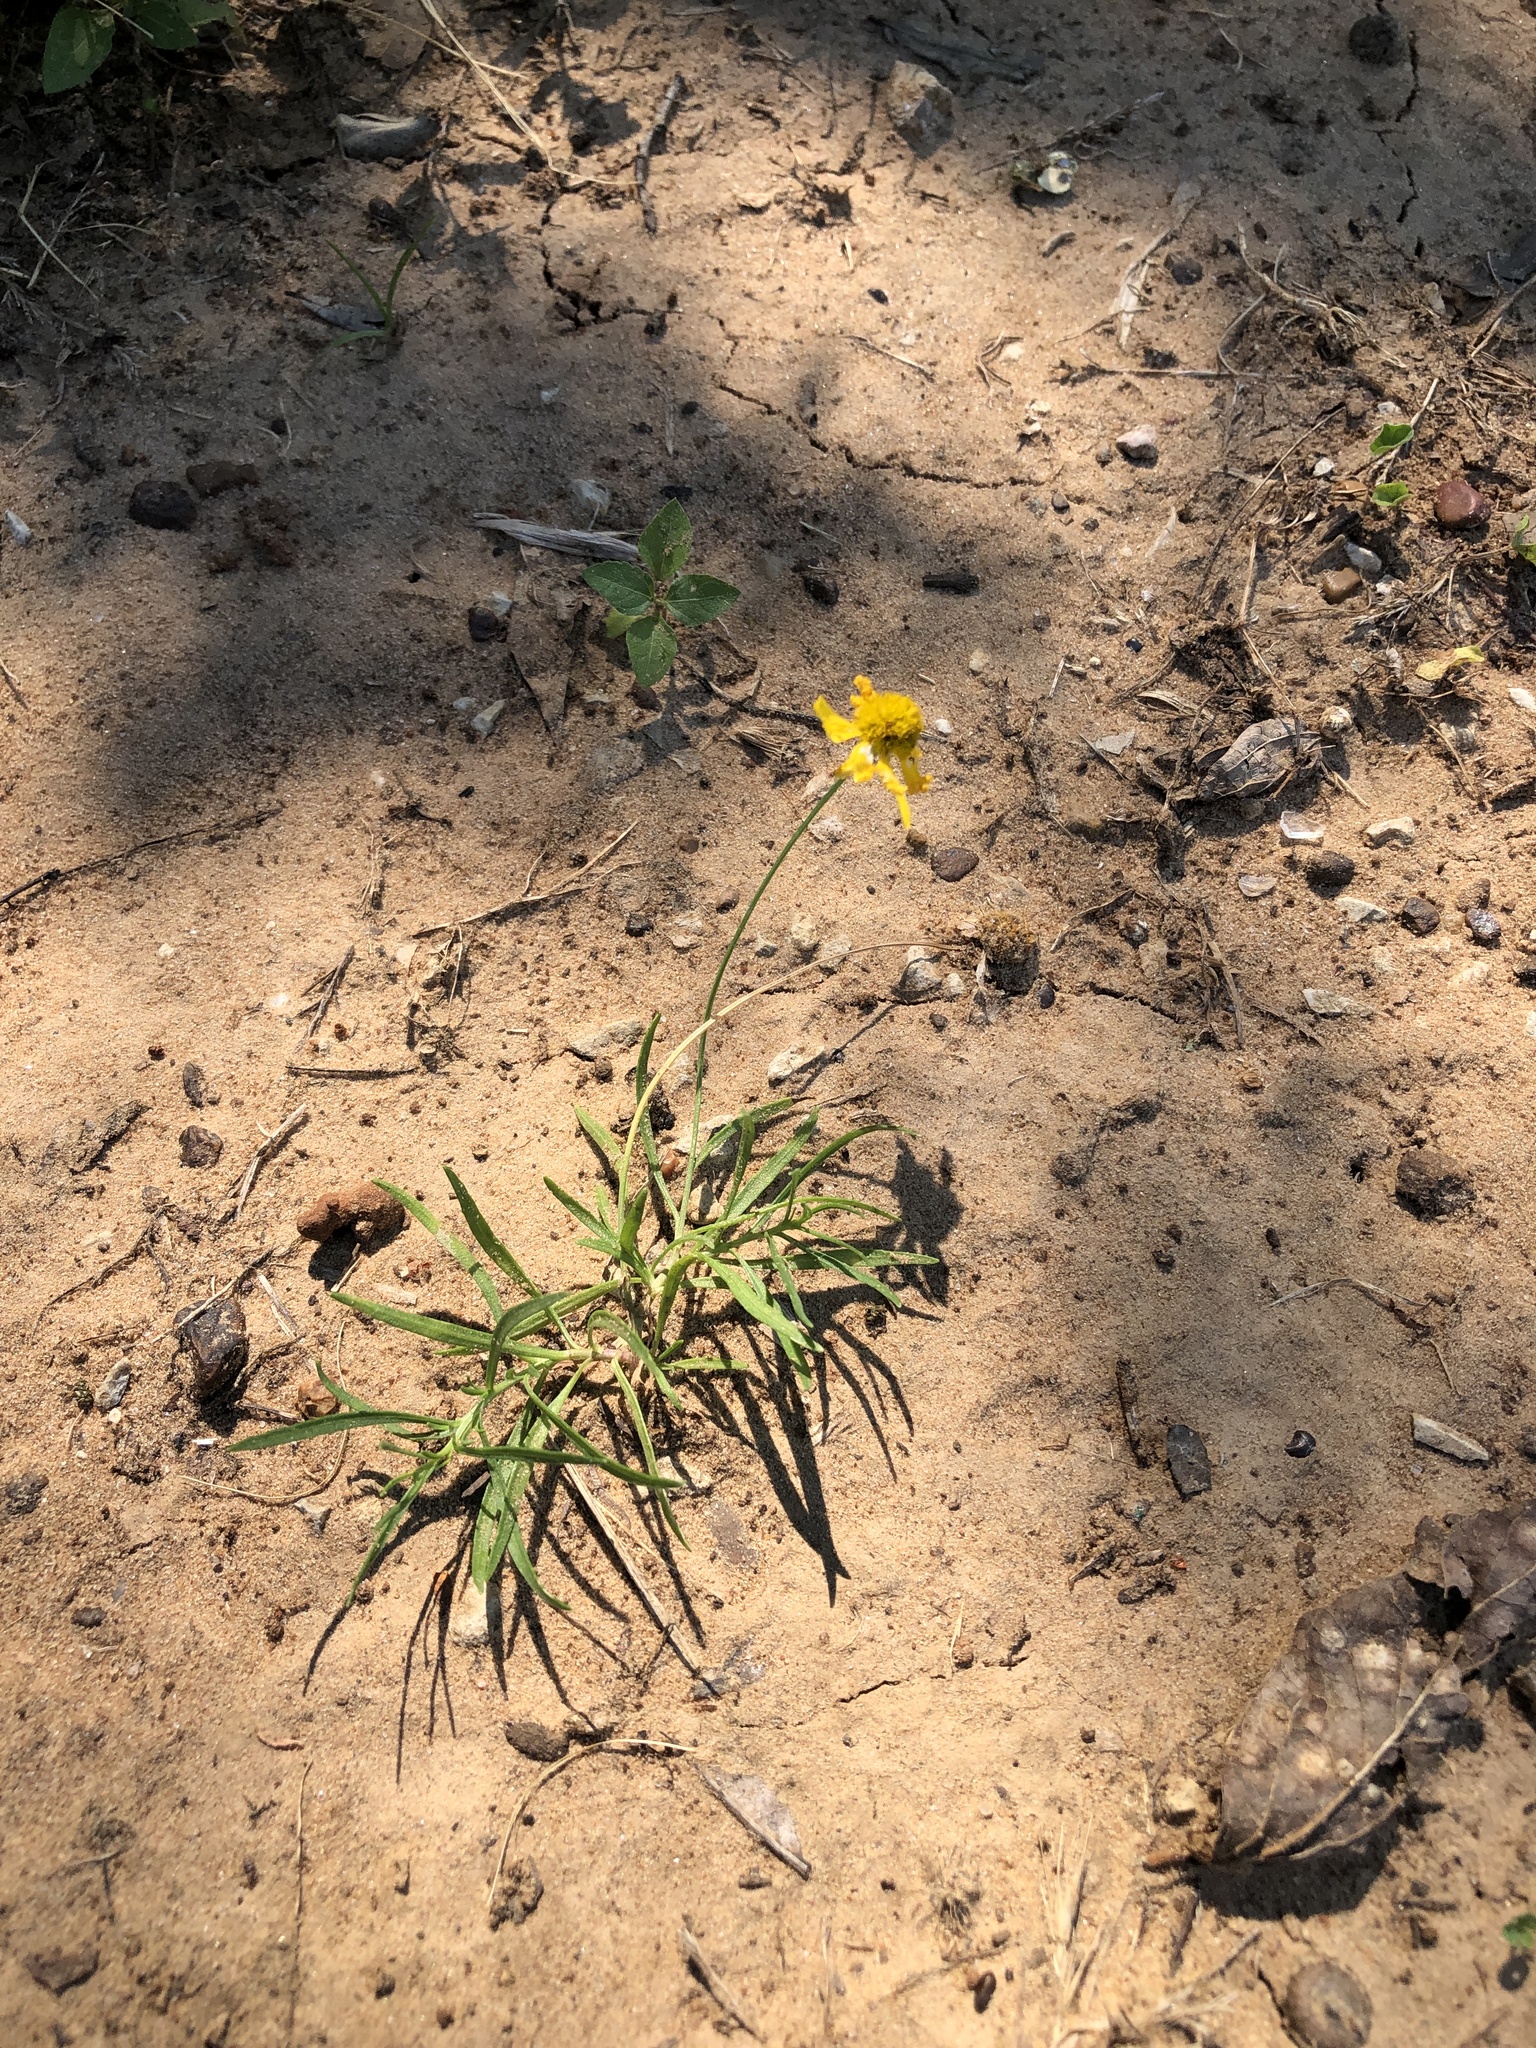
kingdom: Plantae
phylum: Tracheophyta
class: Magnoliopsida
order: Asterales
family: Asteraceae
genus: Helenium
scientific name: Helenium amarum
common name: Bitter sneezeweed
